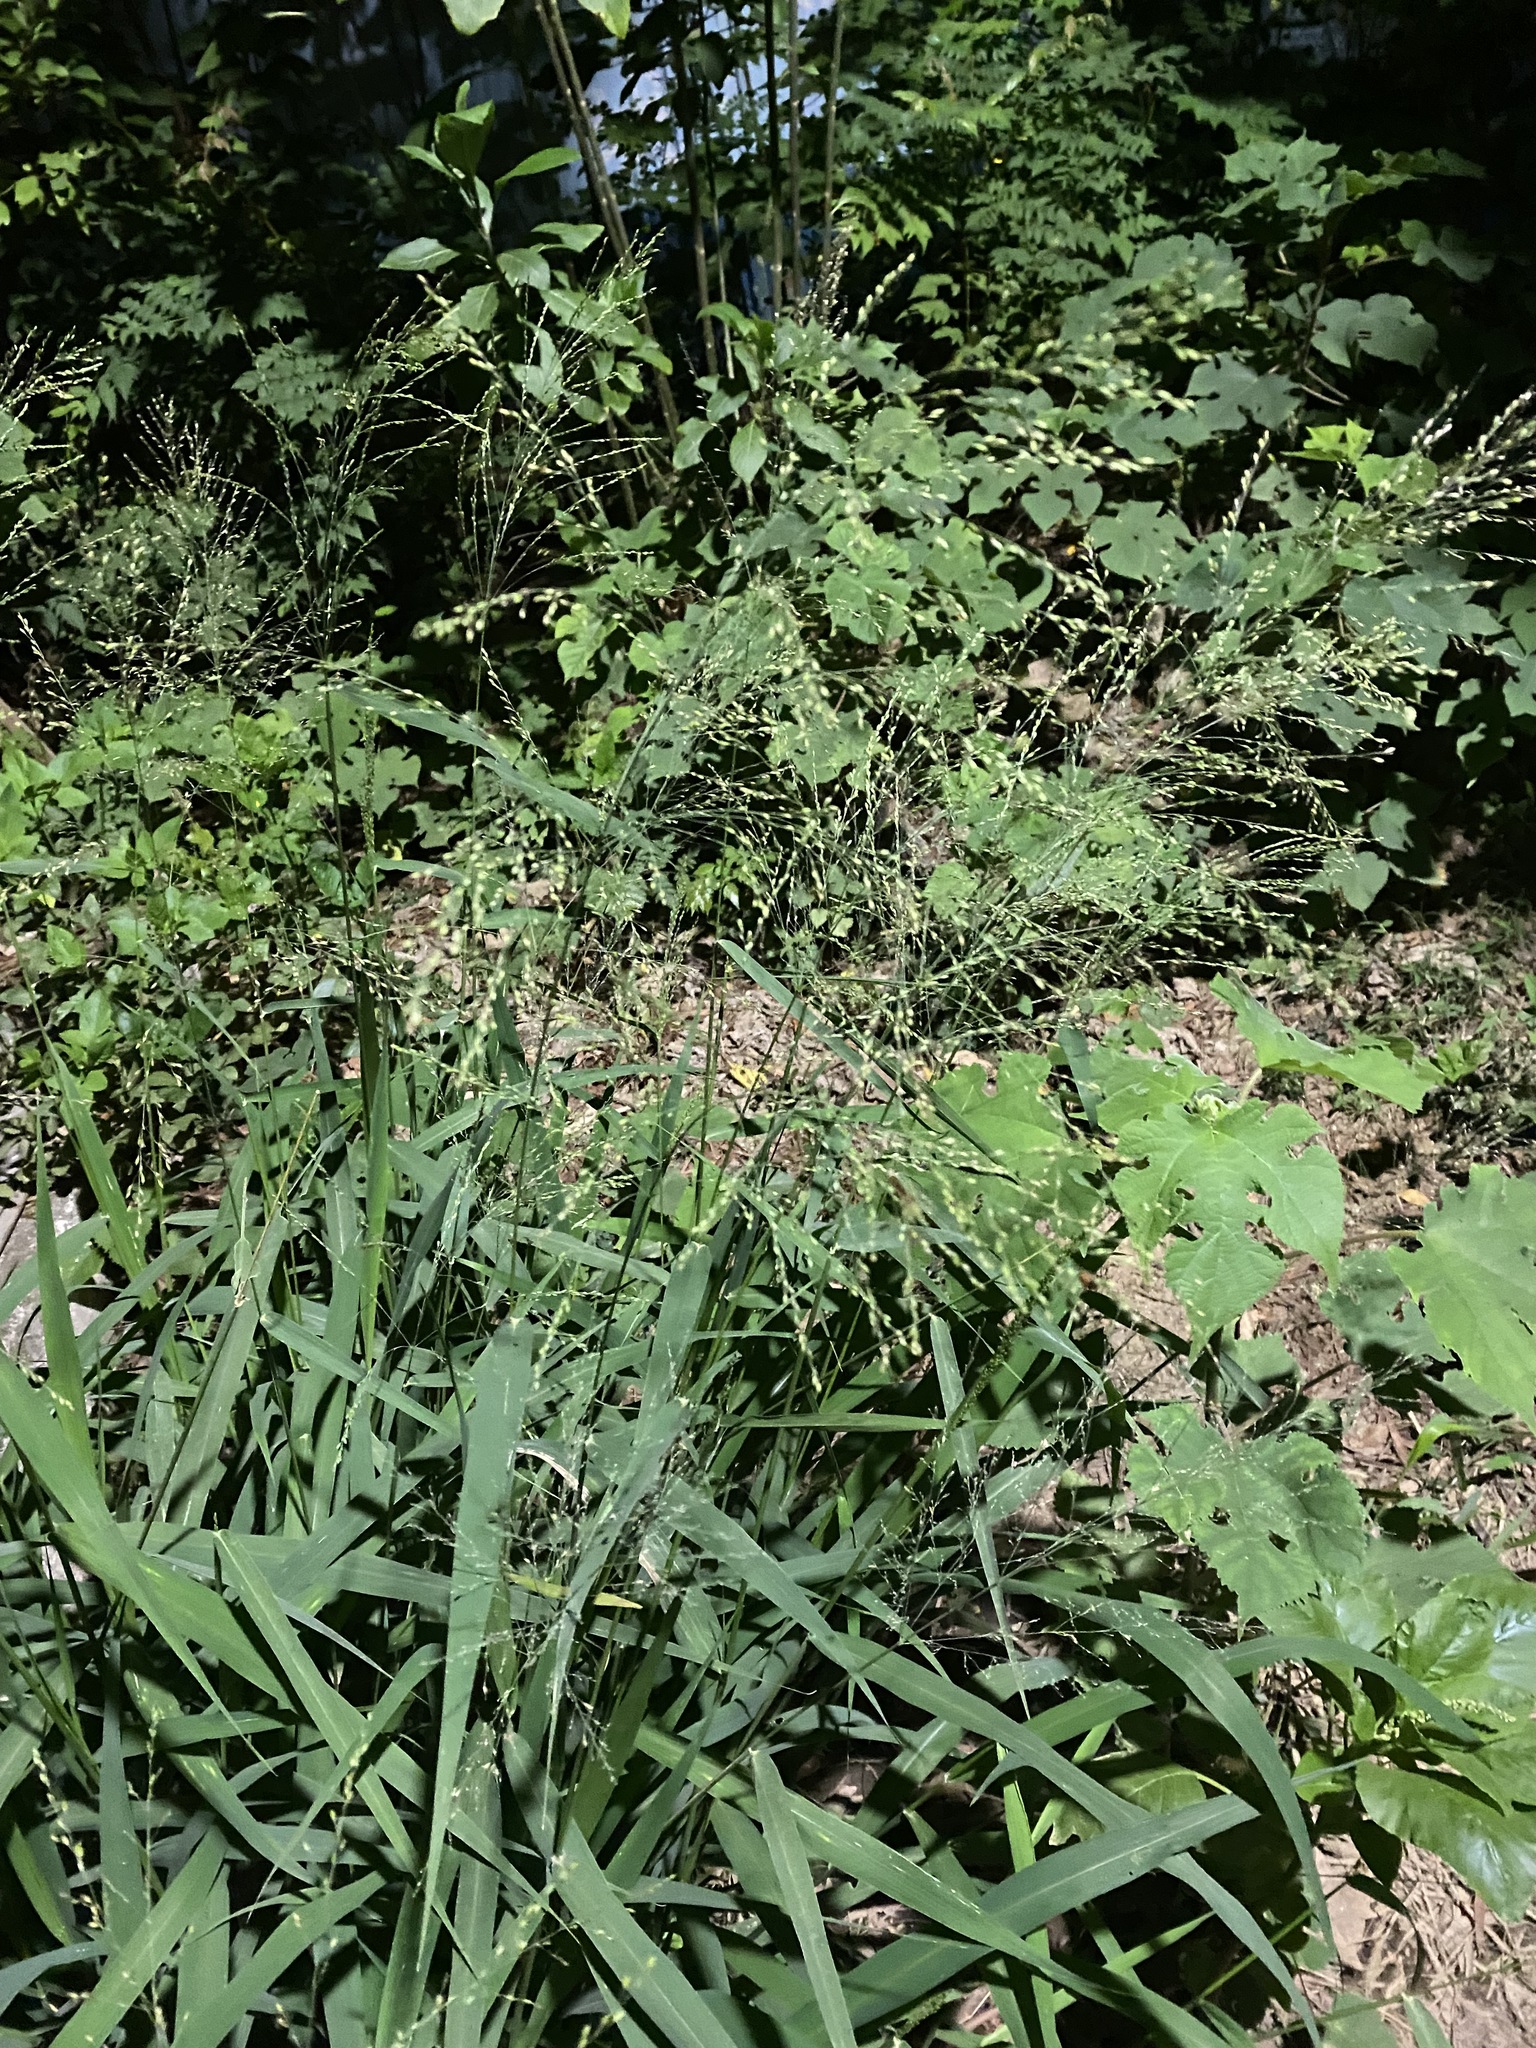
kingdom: Plantae
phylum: Tracheophyta
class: Liliopsida
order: Poales
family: Poaceae
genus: Megathyrsus
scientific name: Megathyrsus maximus
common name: Guineagrass
